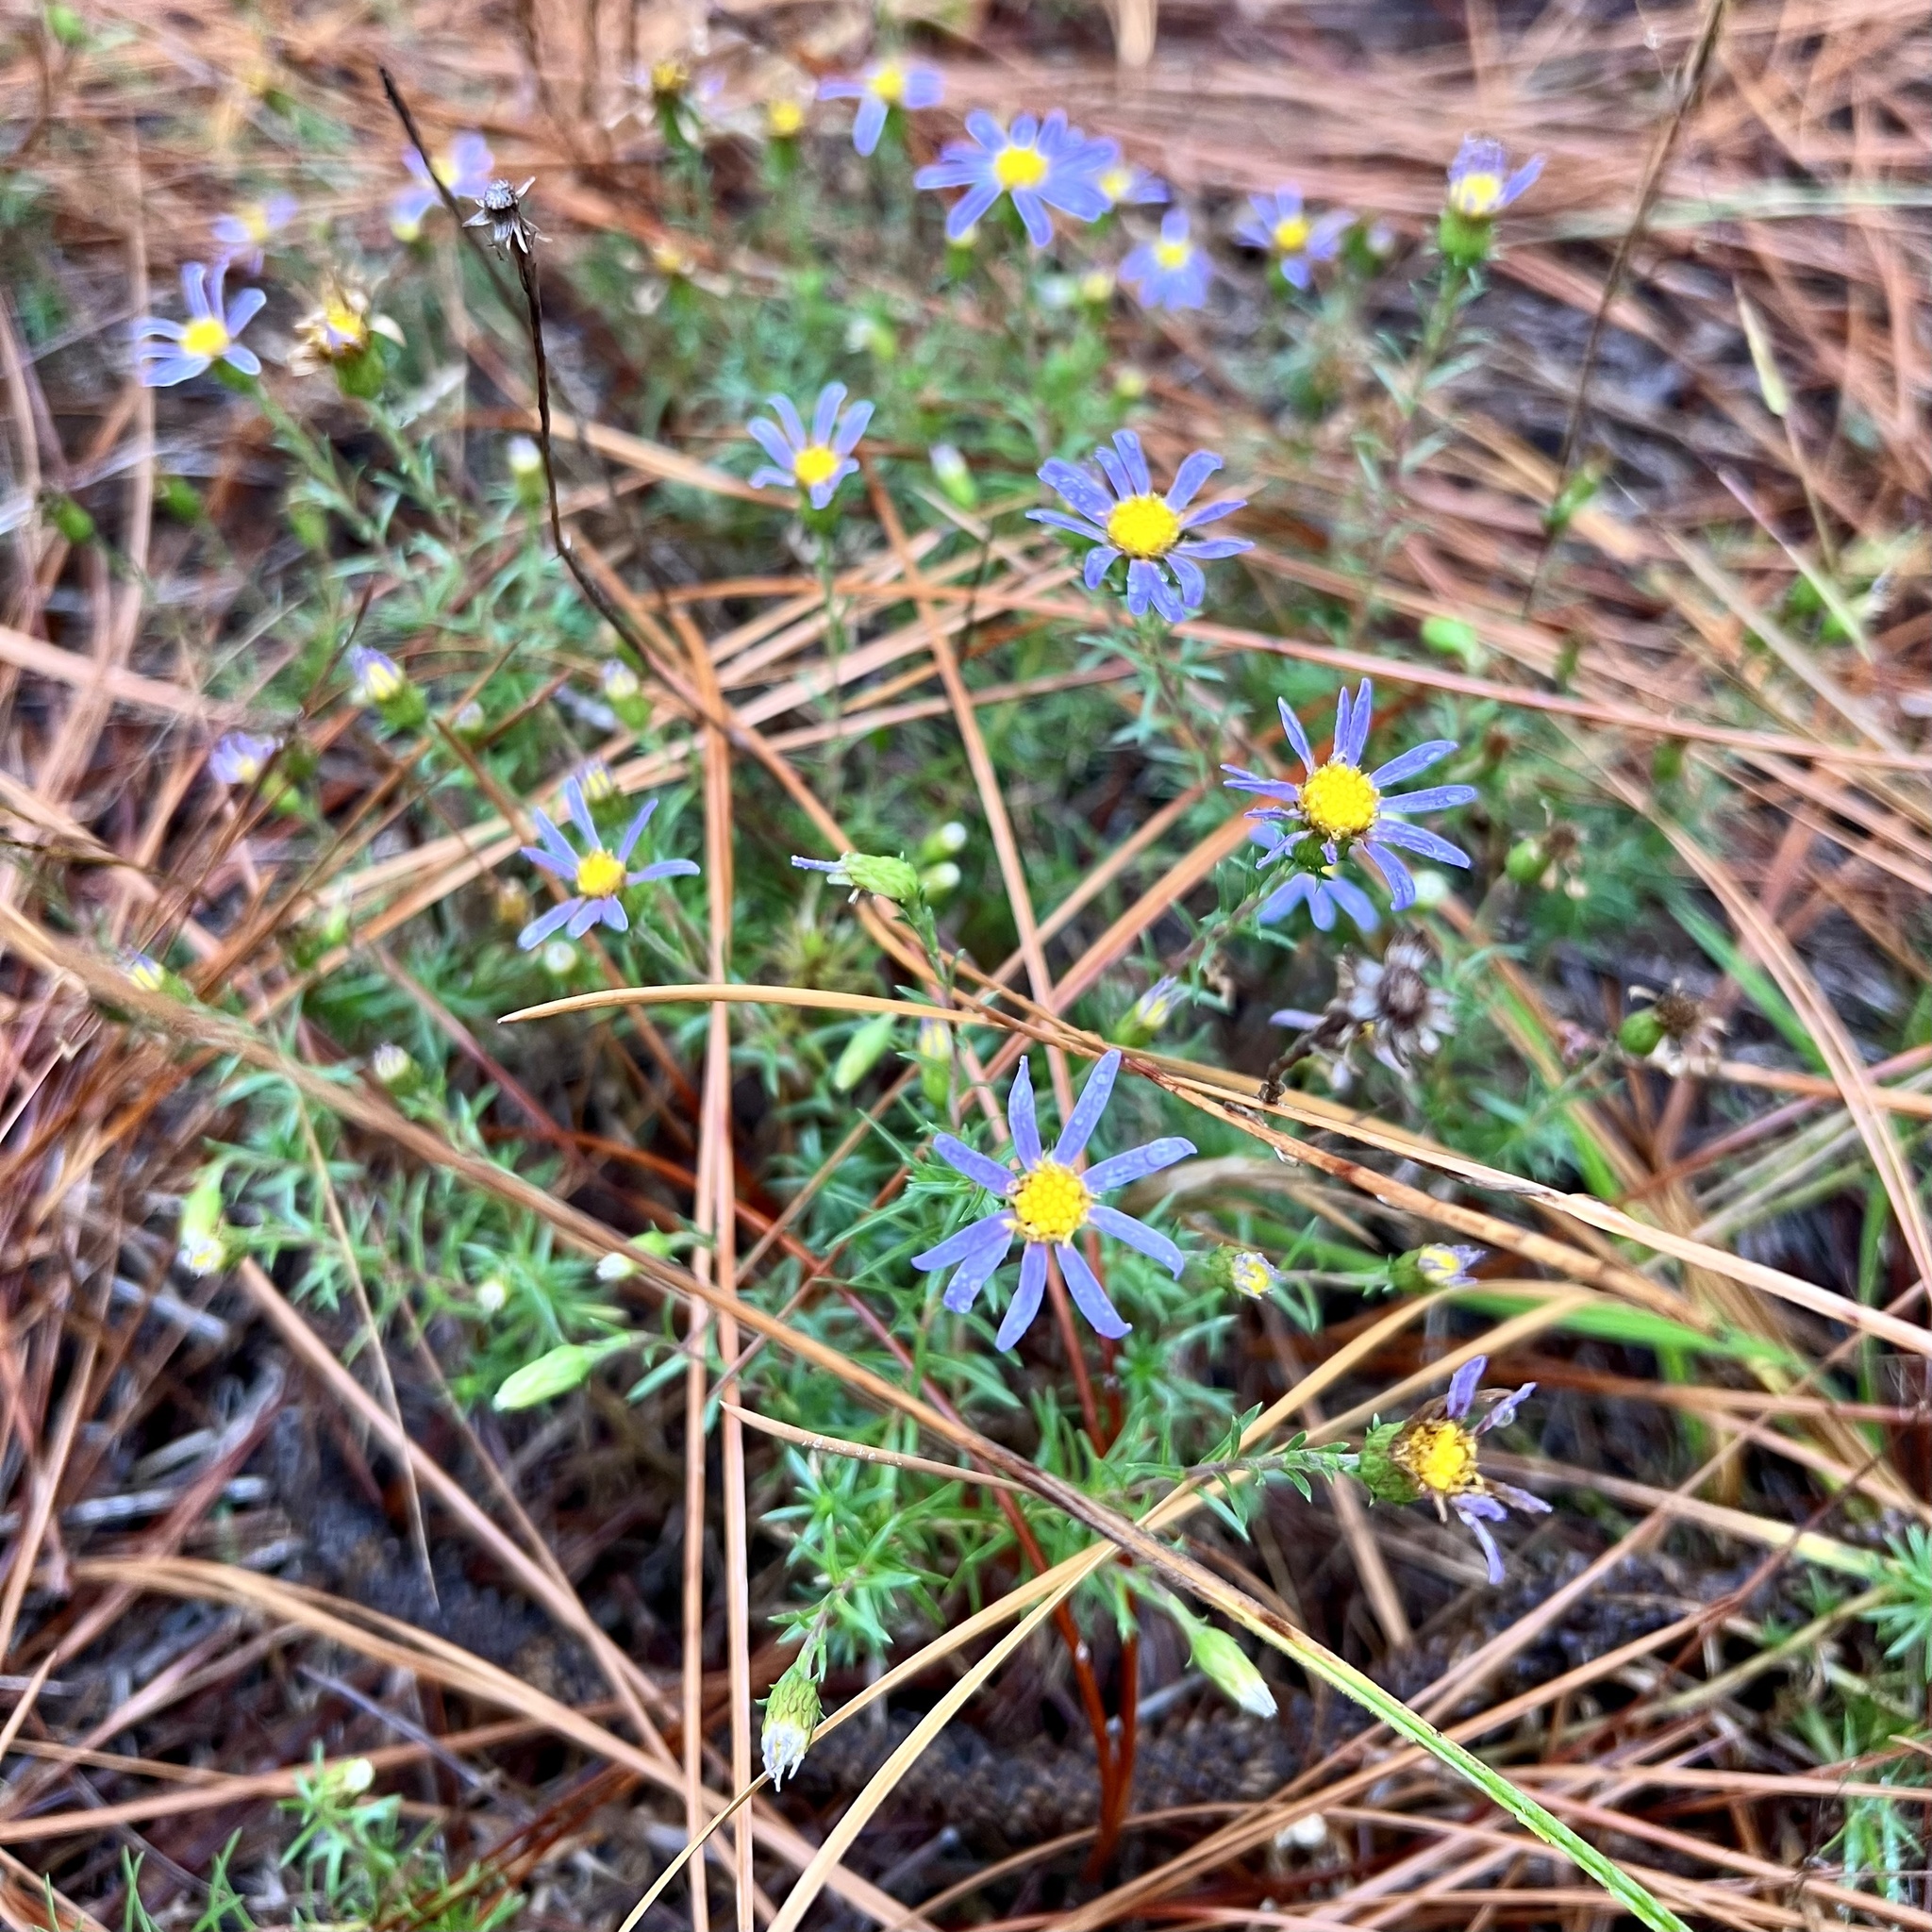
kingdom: Plantae
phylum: Tracheophyta
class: Magnoliopsida
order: Asterales
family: Asteraceae
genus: Ionactis
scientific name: Ionactis linariifolia
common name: Flax-leaf aster
